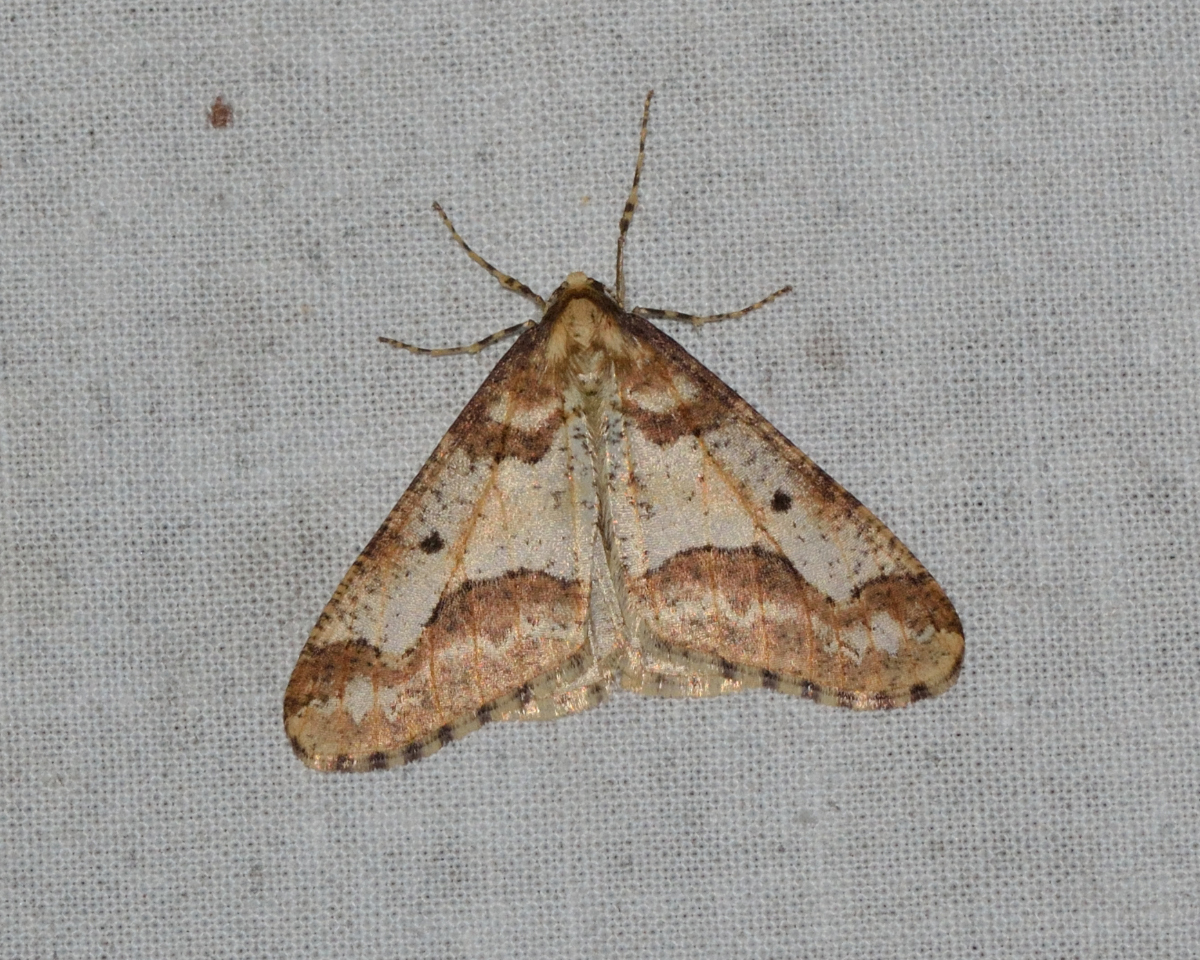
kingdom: Animalia
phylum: Arthropoda
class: Insecta
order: Lepidoptera
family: Geometridae
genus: Erannis
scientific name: Erannis defoliaria
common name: Mottled umber
